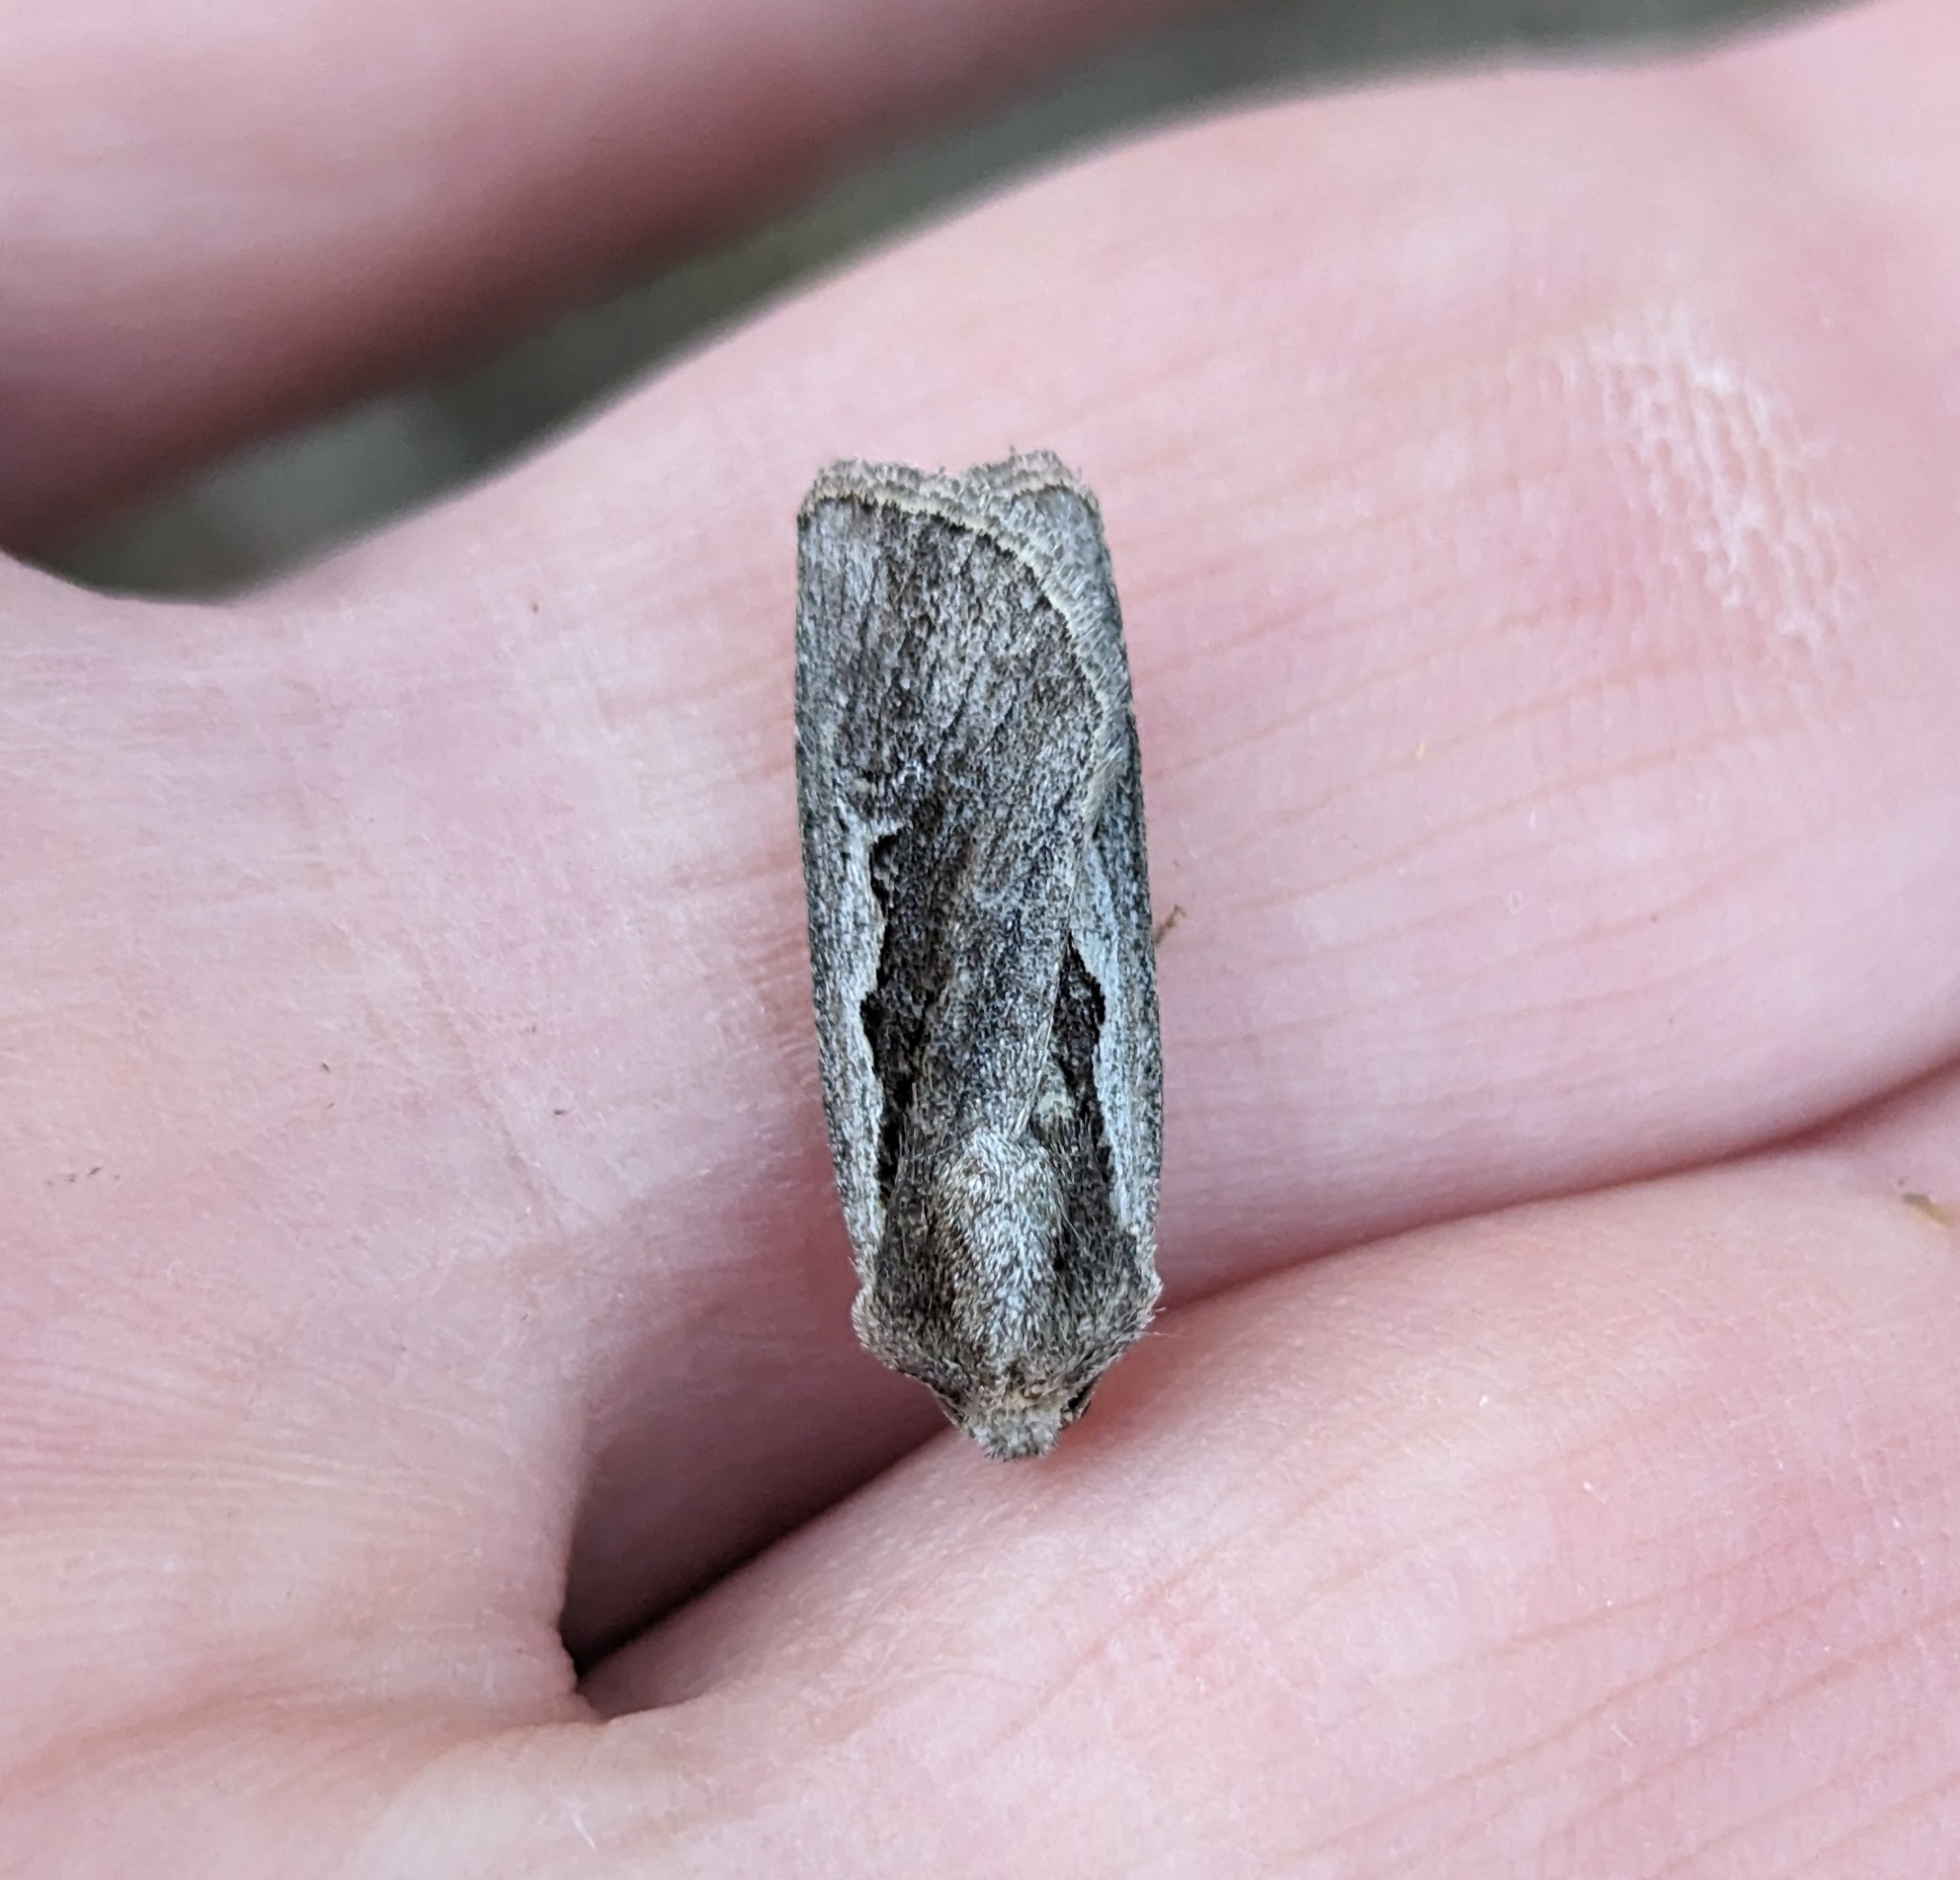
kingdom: Animalia
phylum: Arthropoda
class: Insecta
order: Lepidoptera
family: Noctuidae
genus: Euxoa
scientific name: Euxoa hollemani
